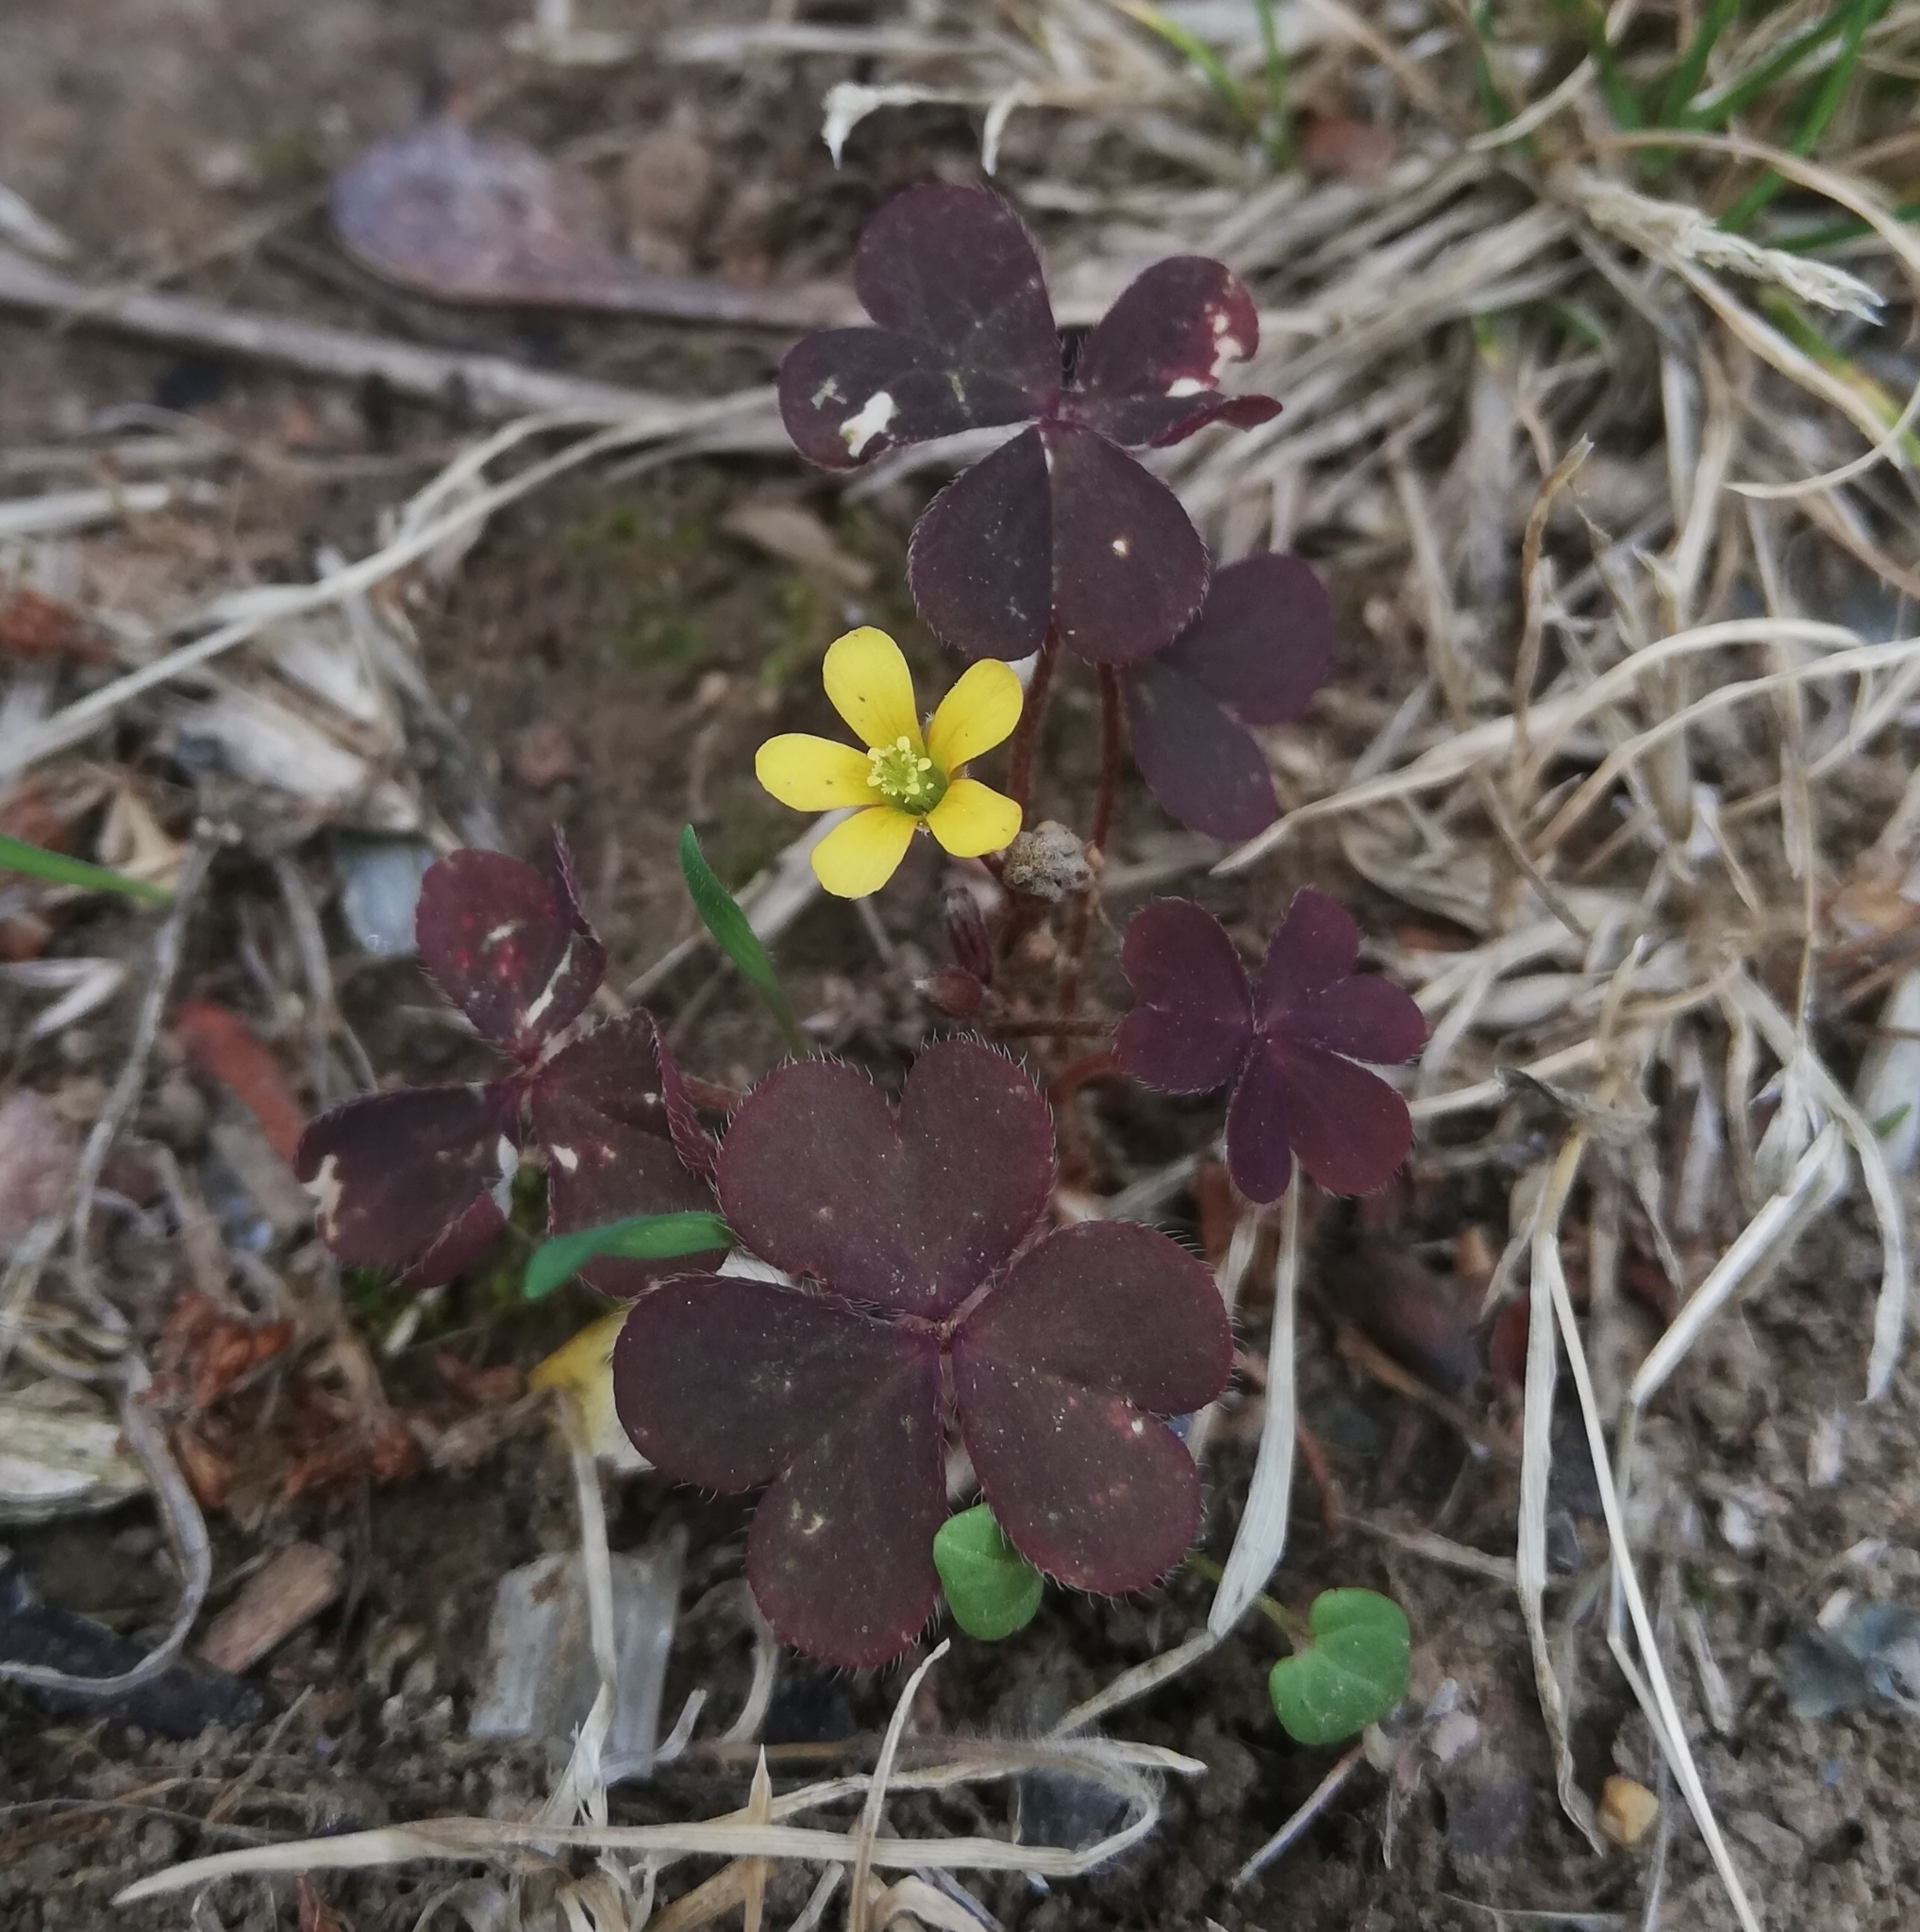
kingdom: Plantae
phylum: Tracheophyta
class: Magnoliopsida
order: Oxalidales
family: Oxalidaceae
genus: Oxalis
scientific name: Oxalis corniculata
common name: Procumbent yellow-sorrel
